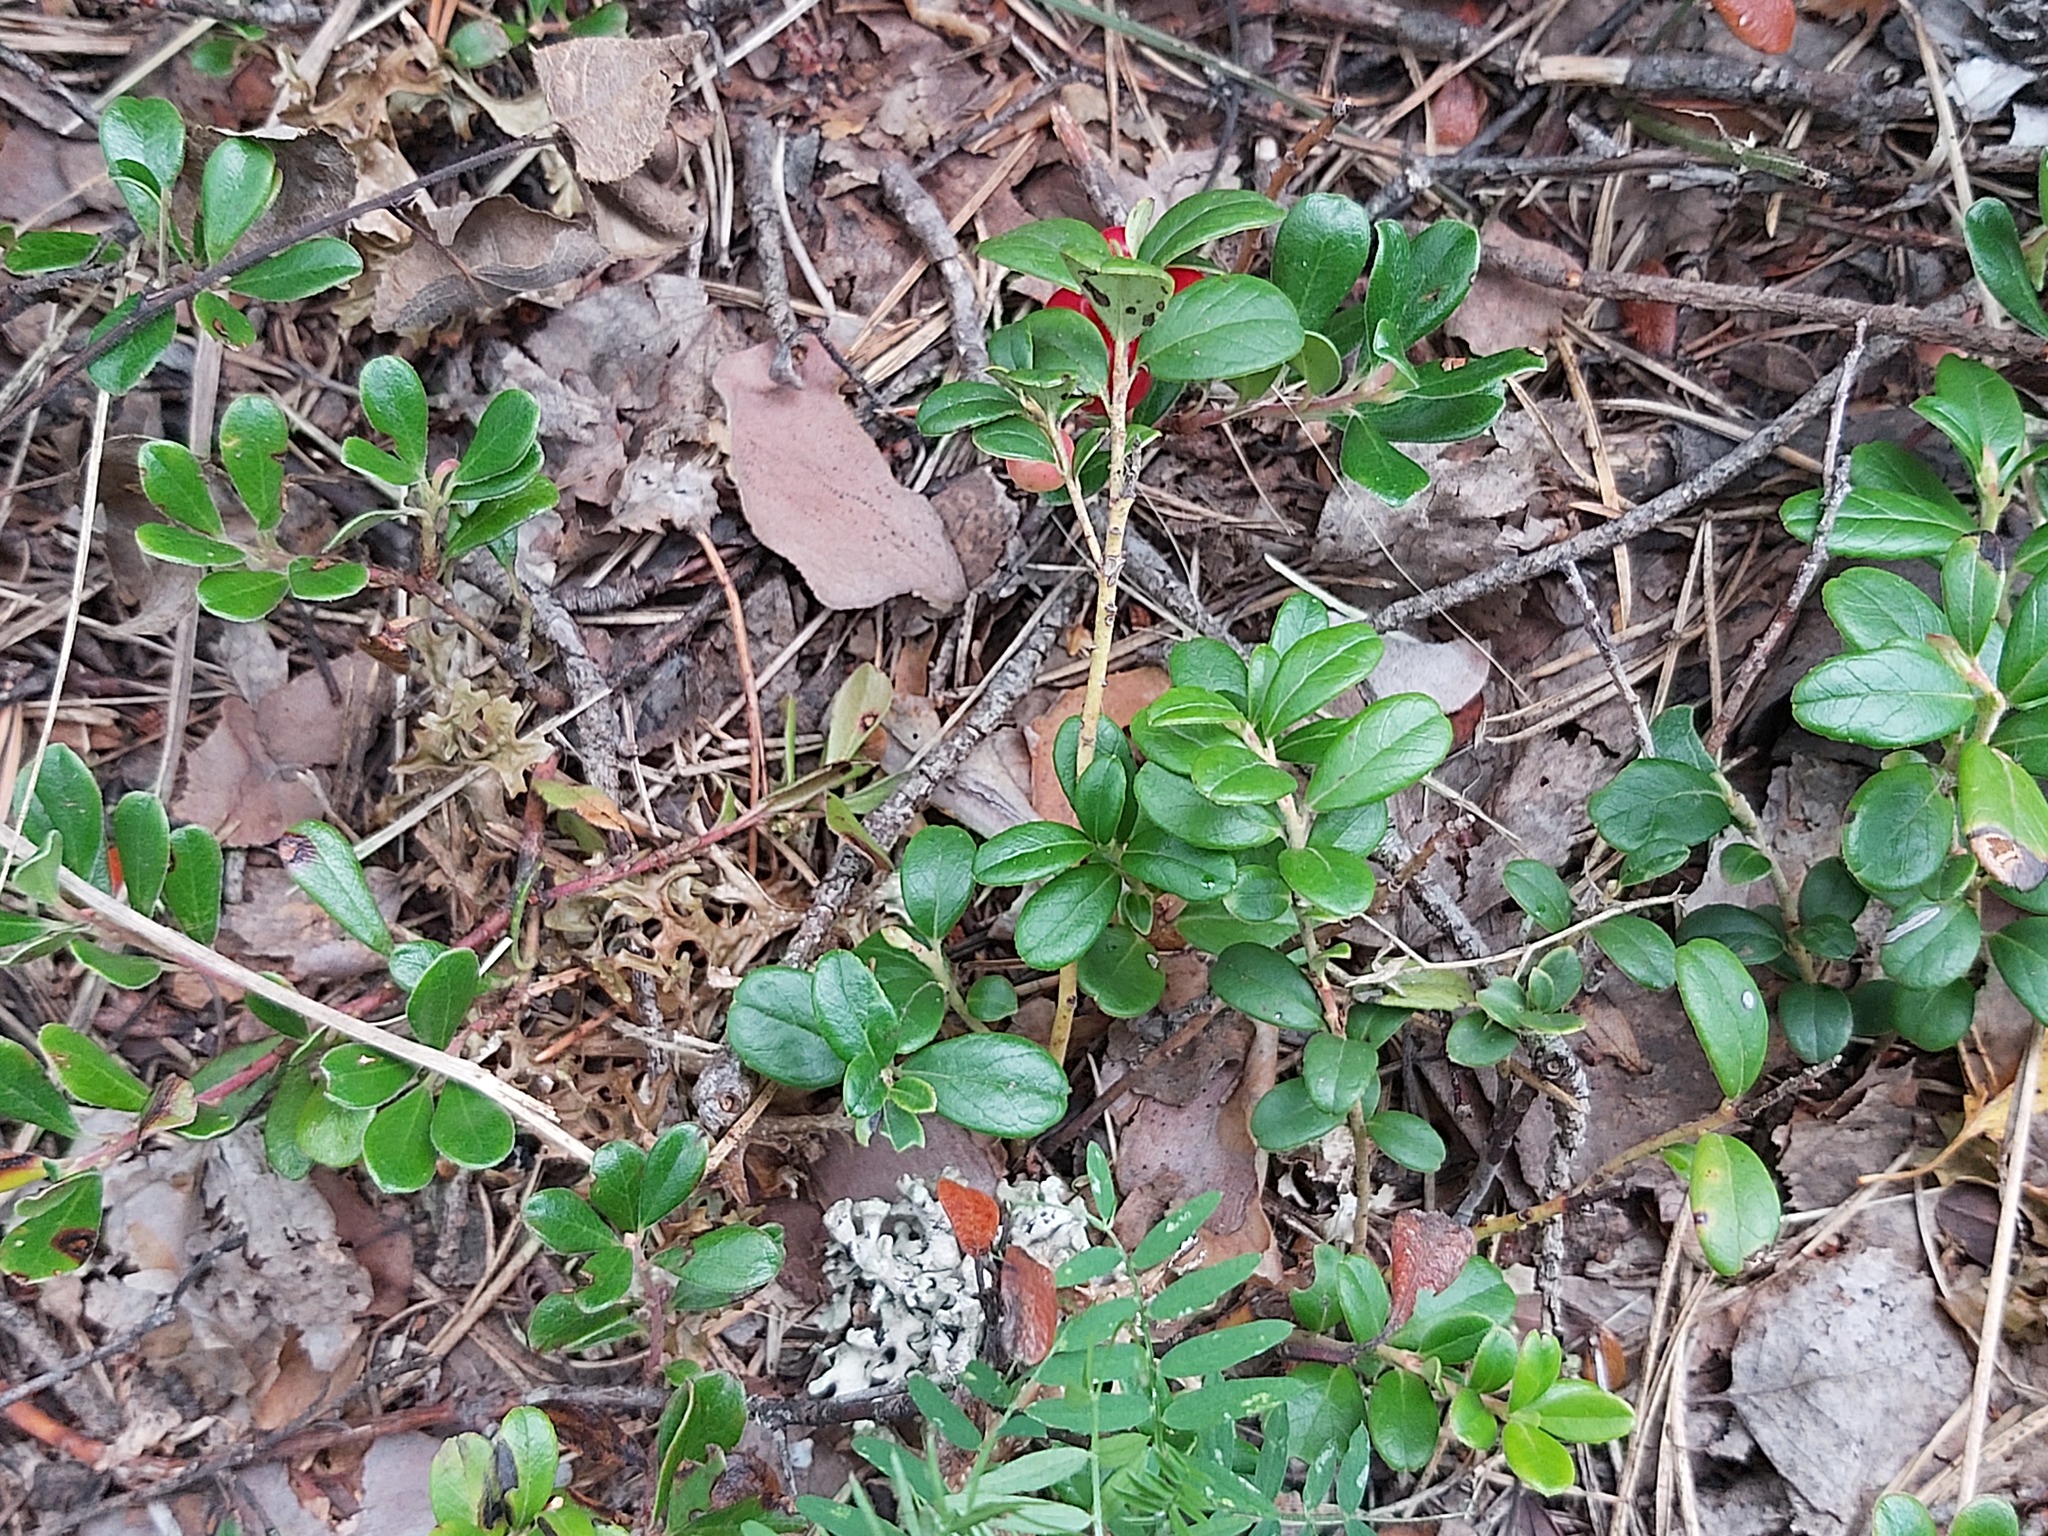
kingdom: Plantae
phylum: Tracheophyta
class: Magnoliopsida
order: Ericales
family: Ericaceae
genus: Arctostaphylos
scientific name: Arctostaphylos uva-ursi
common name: Bearberry
